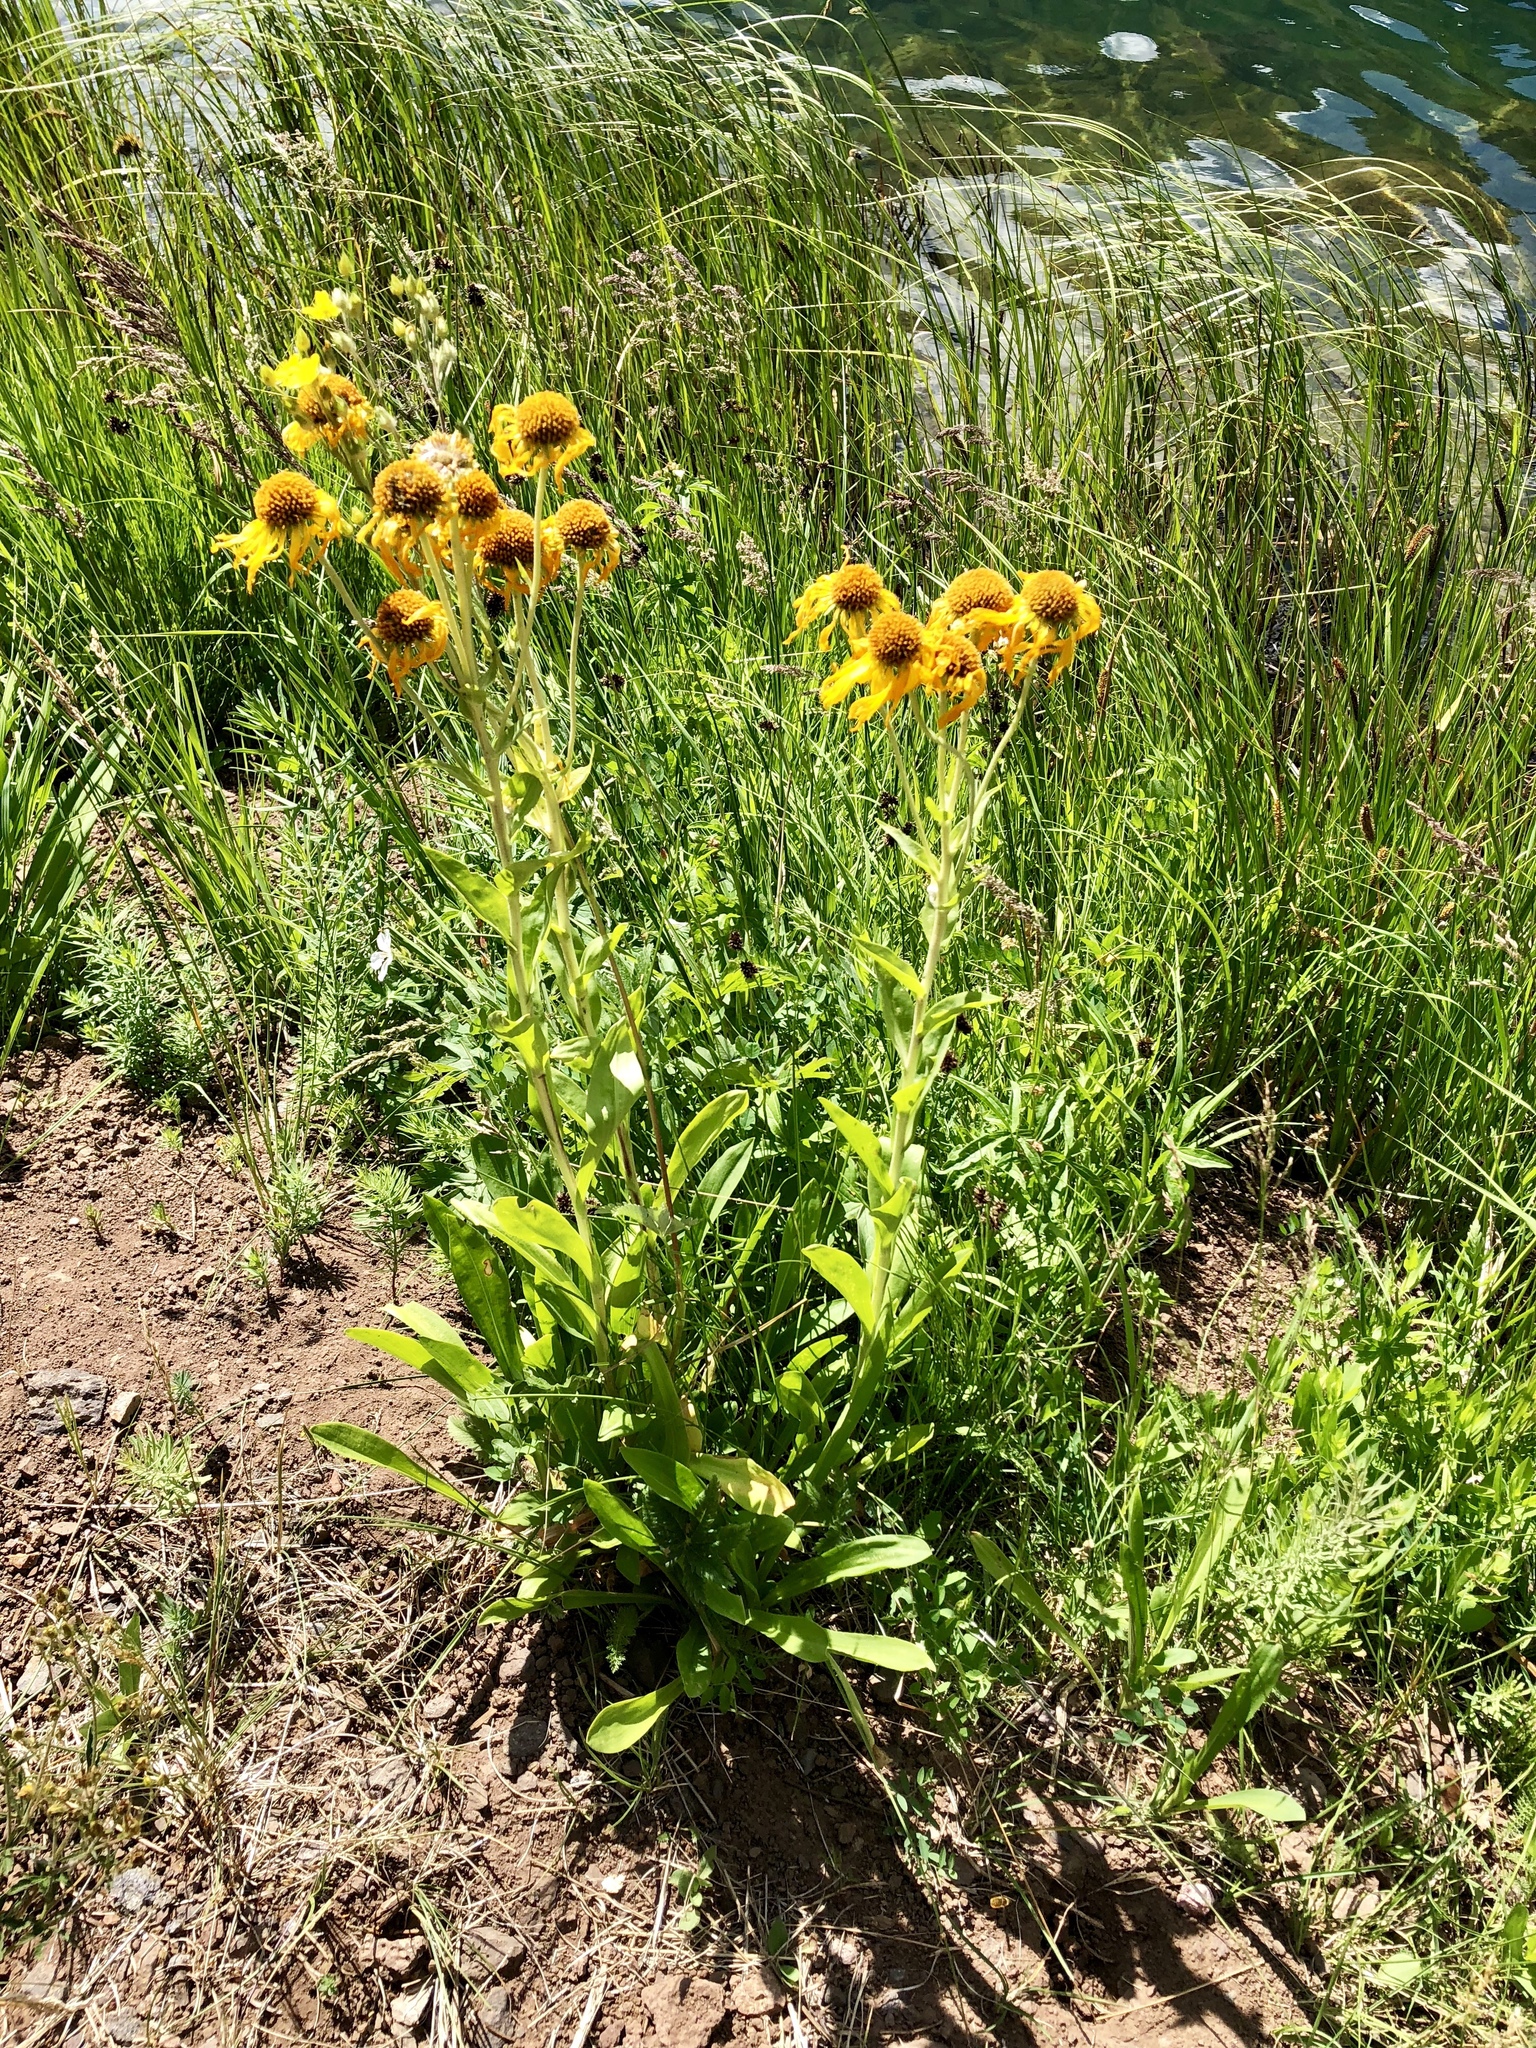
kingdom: Plantae
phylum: Tracheophyta
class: Magnoliopsida
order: Asterales
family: Asteraceae
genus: Hymenoxys
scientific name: Hymenoxys hoopesii
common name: Orange-sneezeweed
